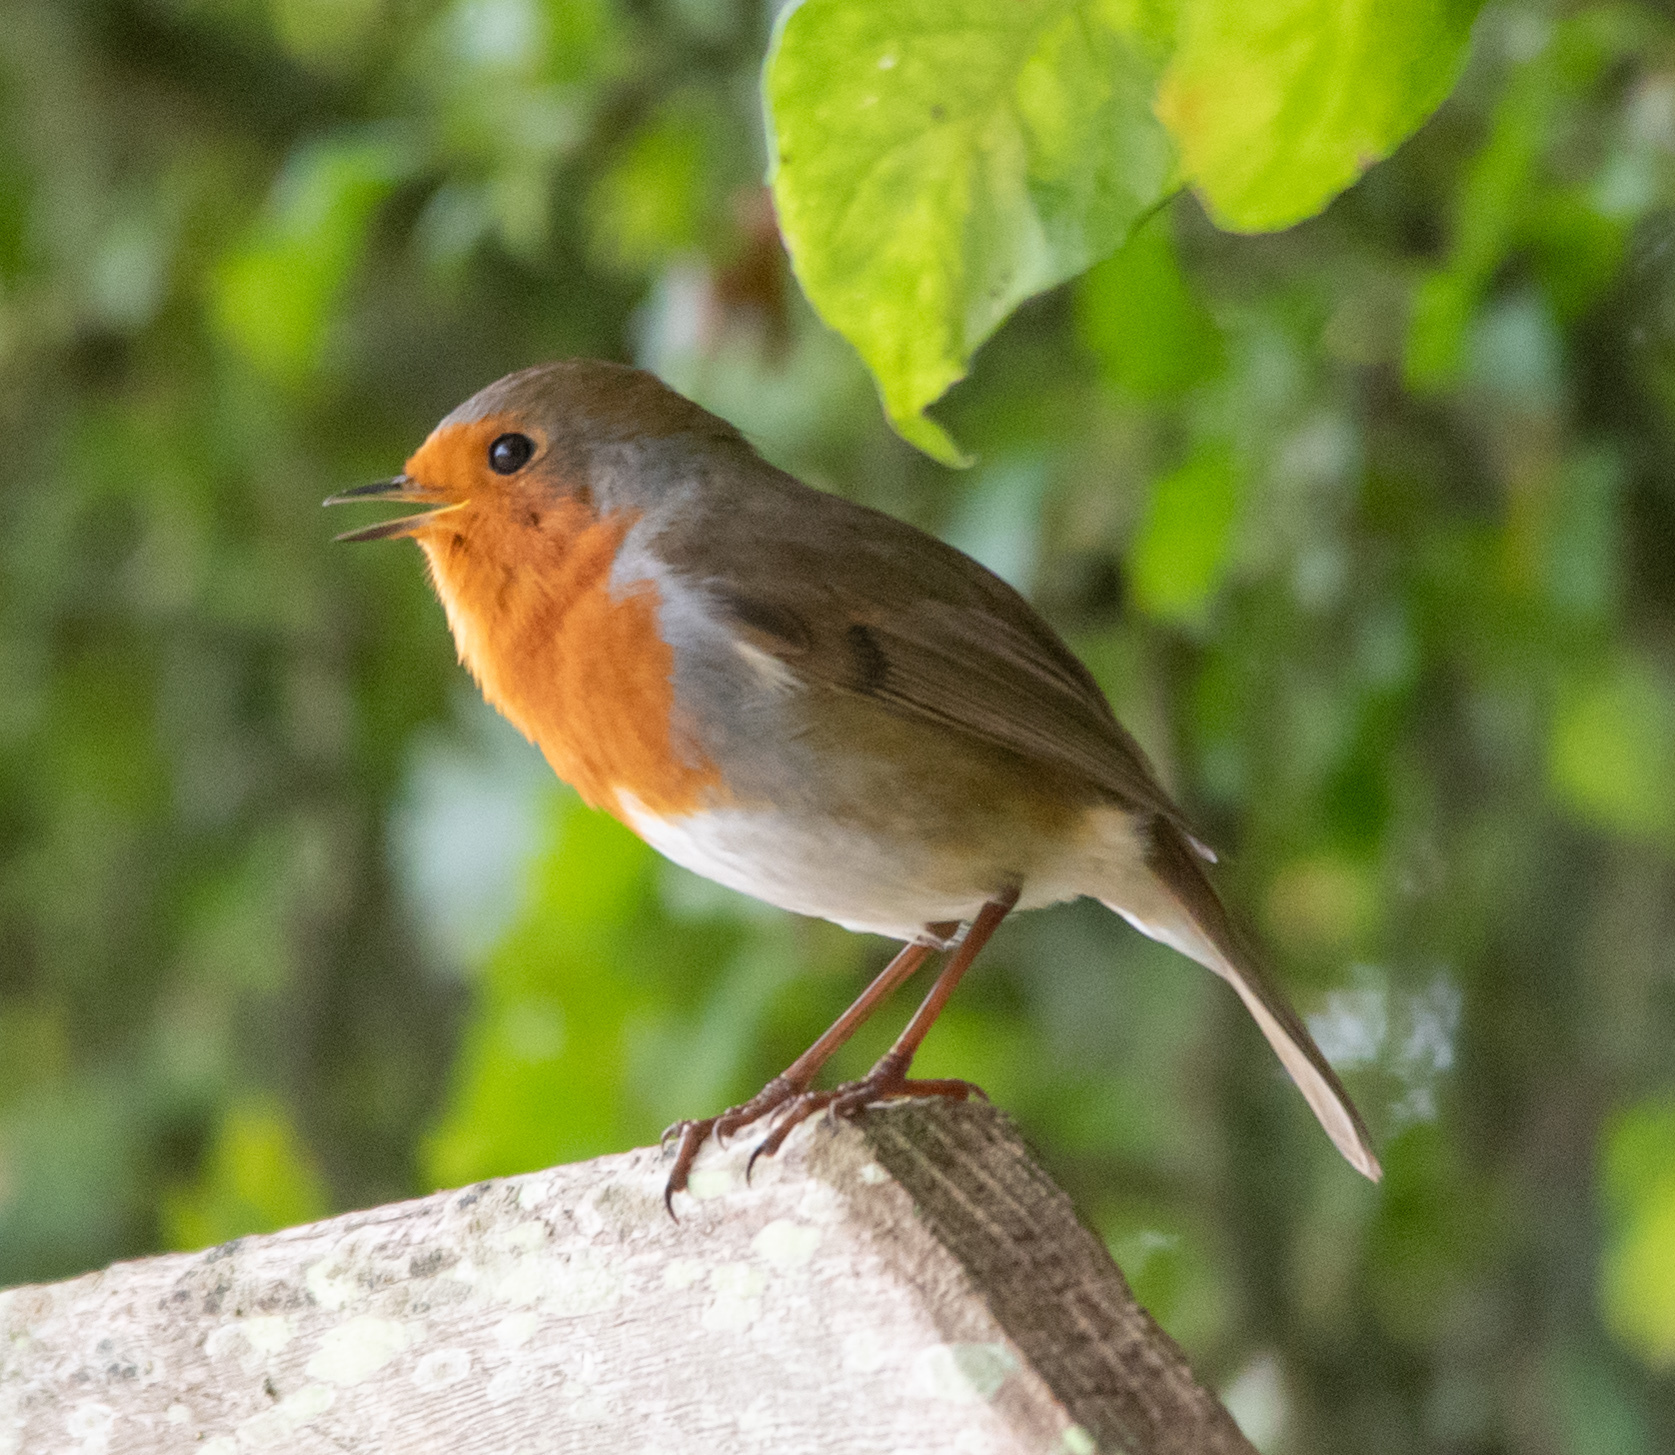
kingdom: Animalia
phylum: Chordata
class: Aves
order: Passeriformes
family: Muscicapidae
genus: Erithacus
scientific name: Erithacus rubecula
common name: European robin
